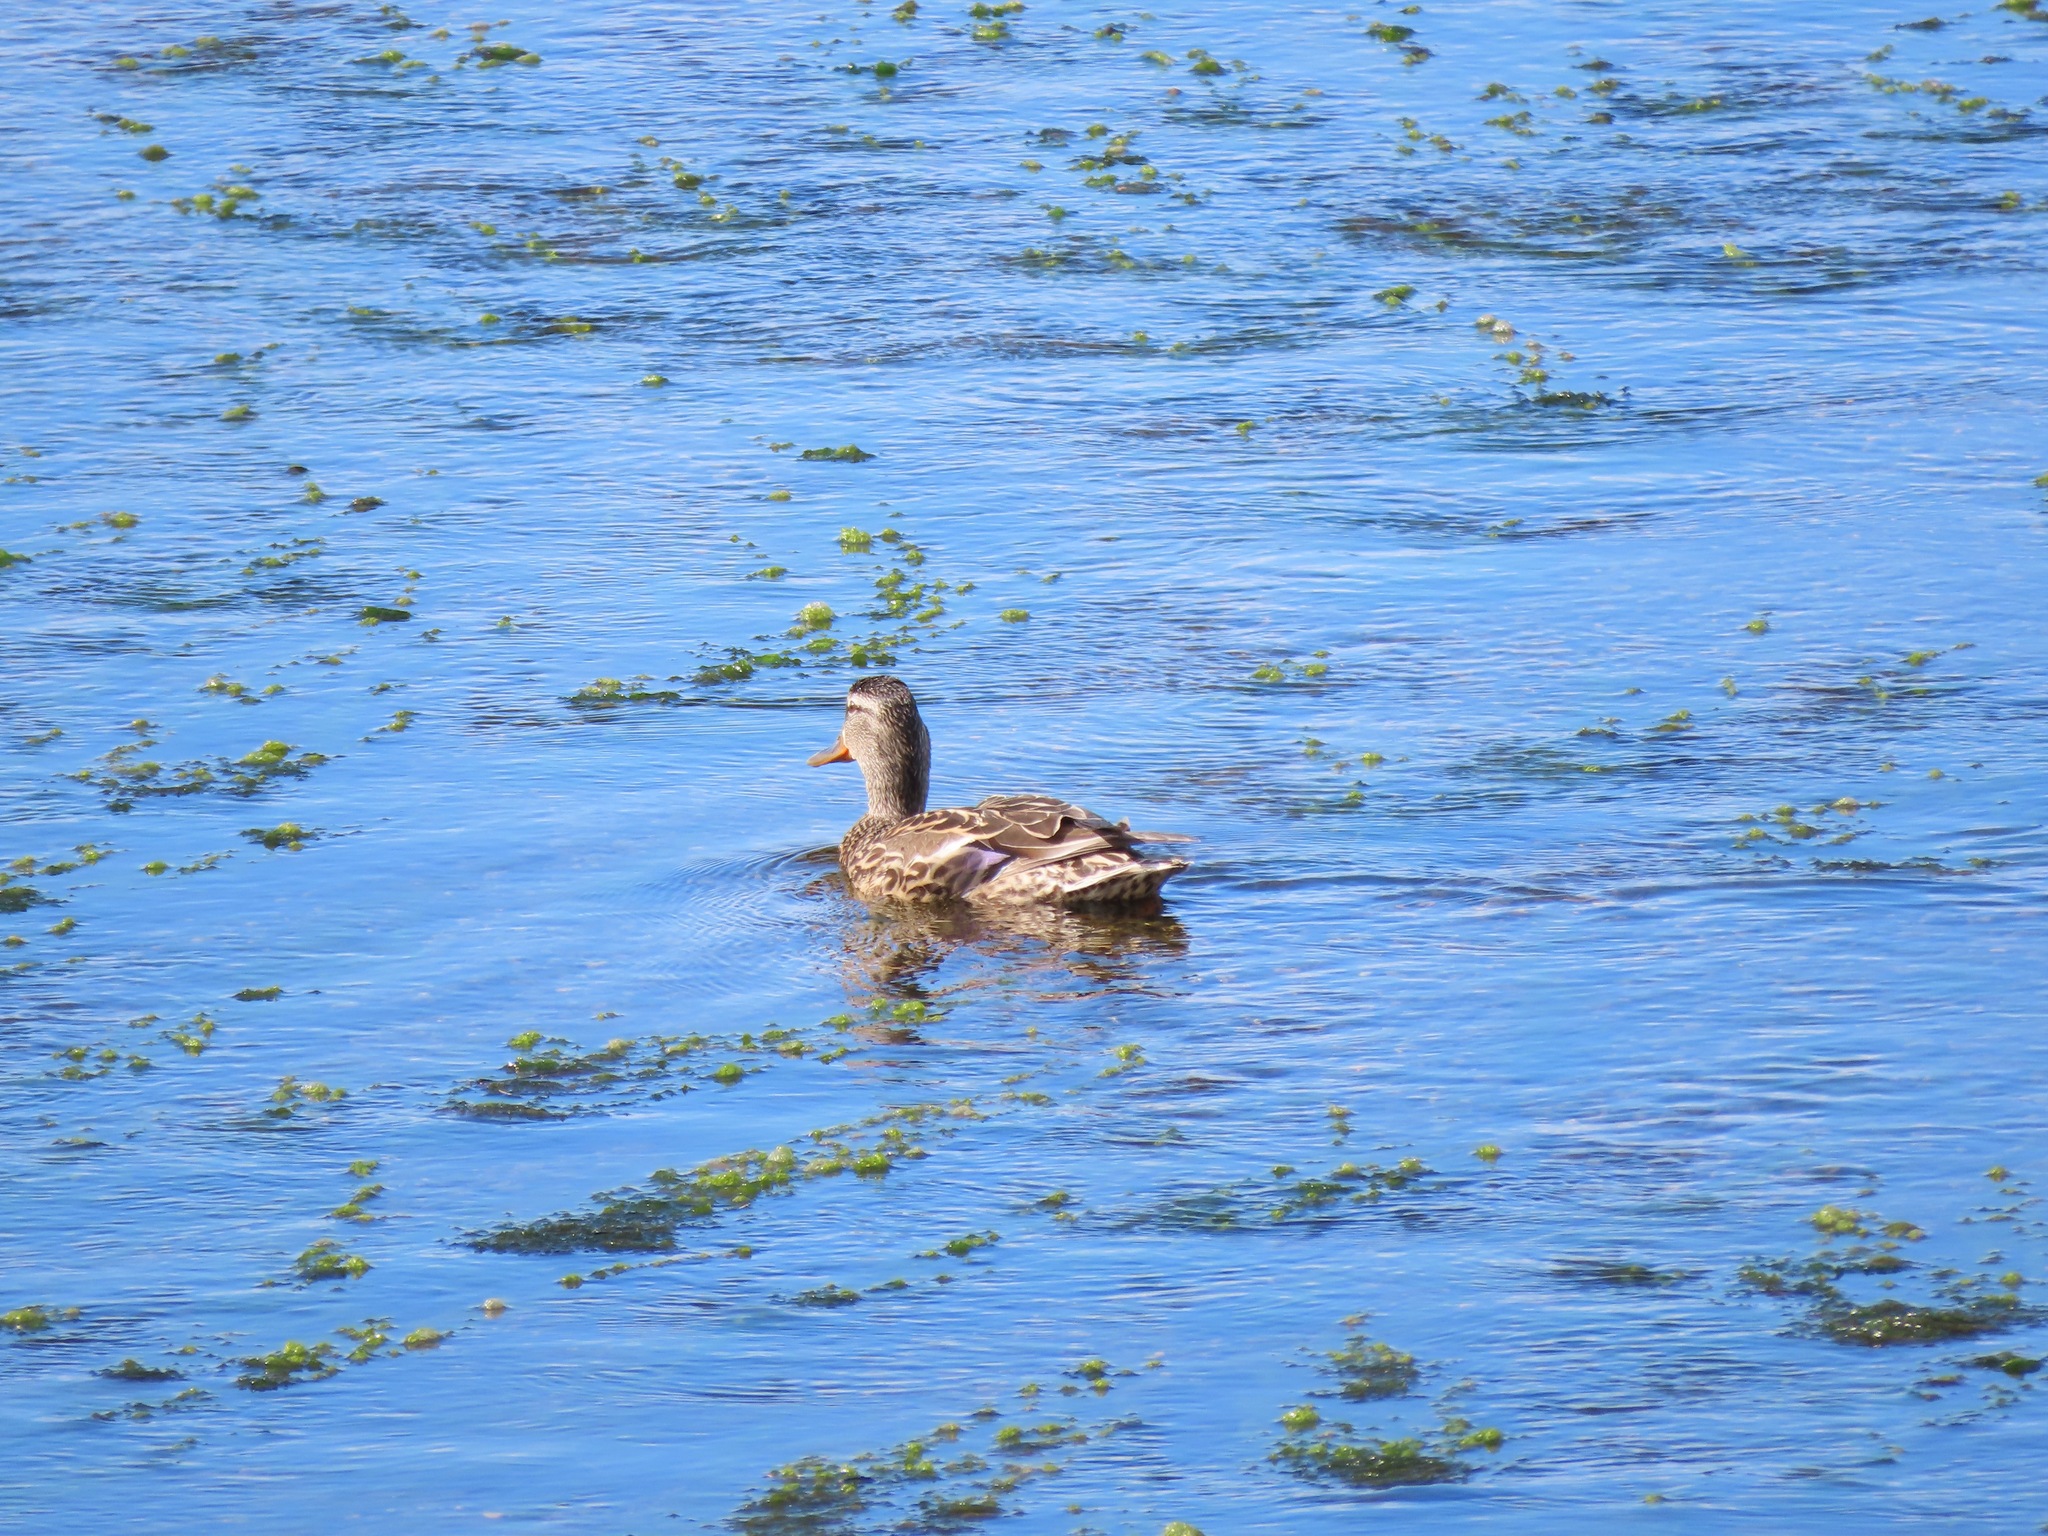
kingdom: Animalia
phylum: Chordata
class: Aves
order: Anseriformes
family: Anatidae
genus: Anas
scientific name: Anas platyrhynchos
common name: Mallard
